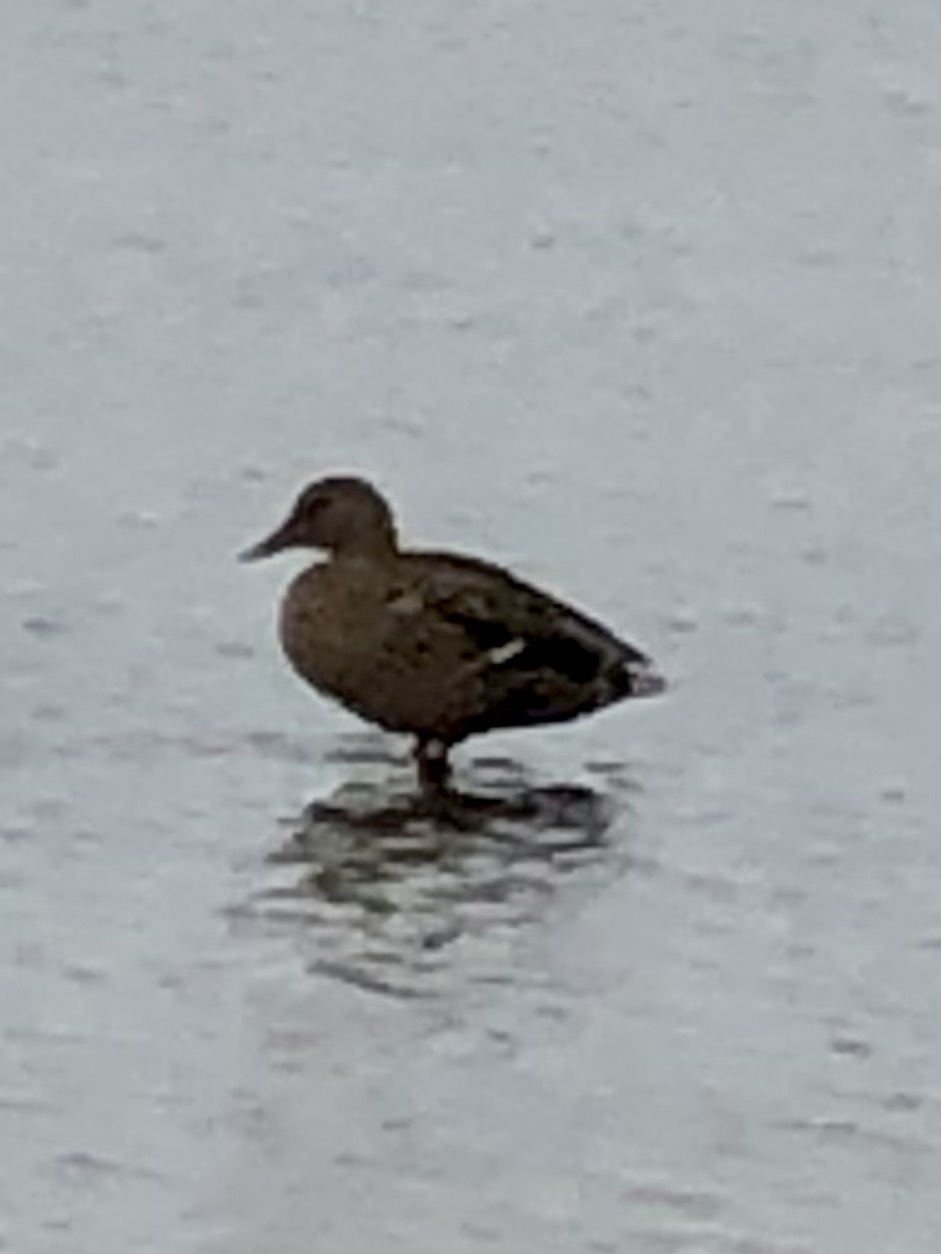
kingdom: Animalia
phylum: Chordata
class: Aves
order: Anseriformes
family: Anatidae
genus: Anas
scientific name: Anas platyrhynchos
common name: Mallard
